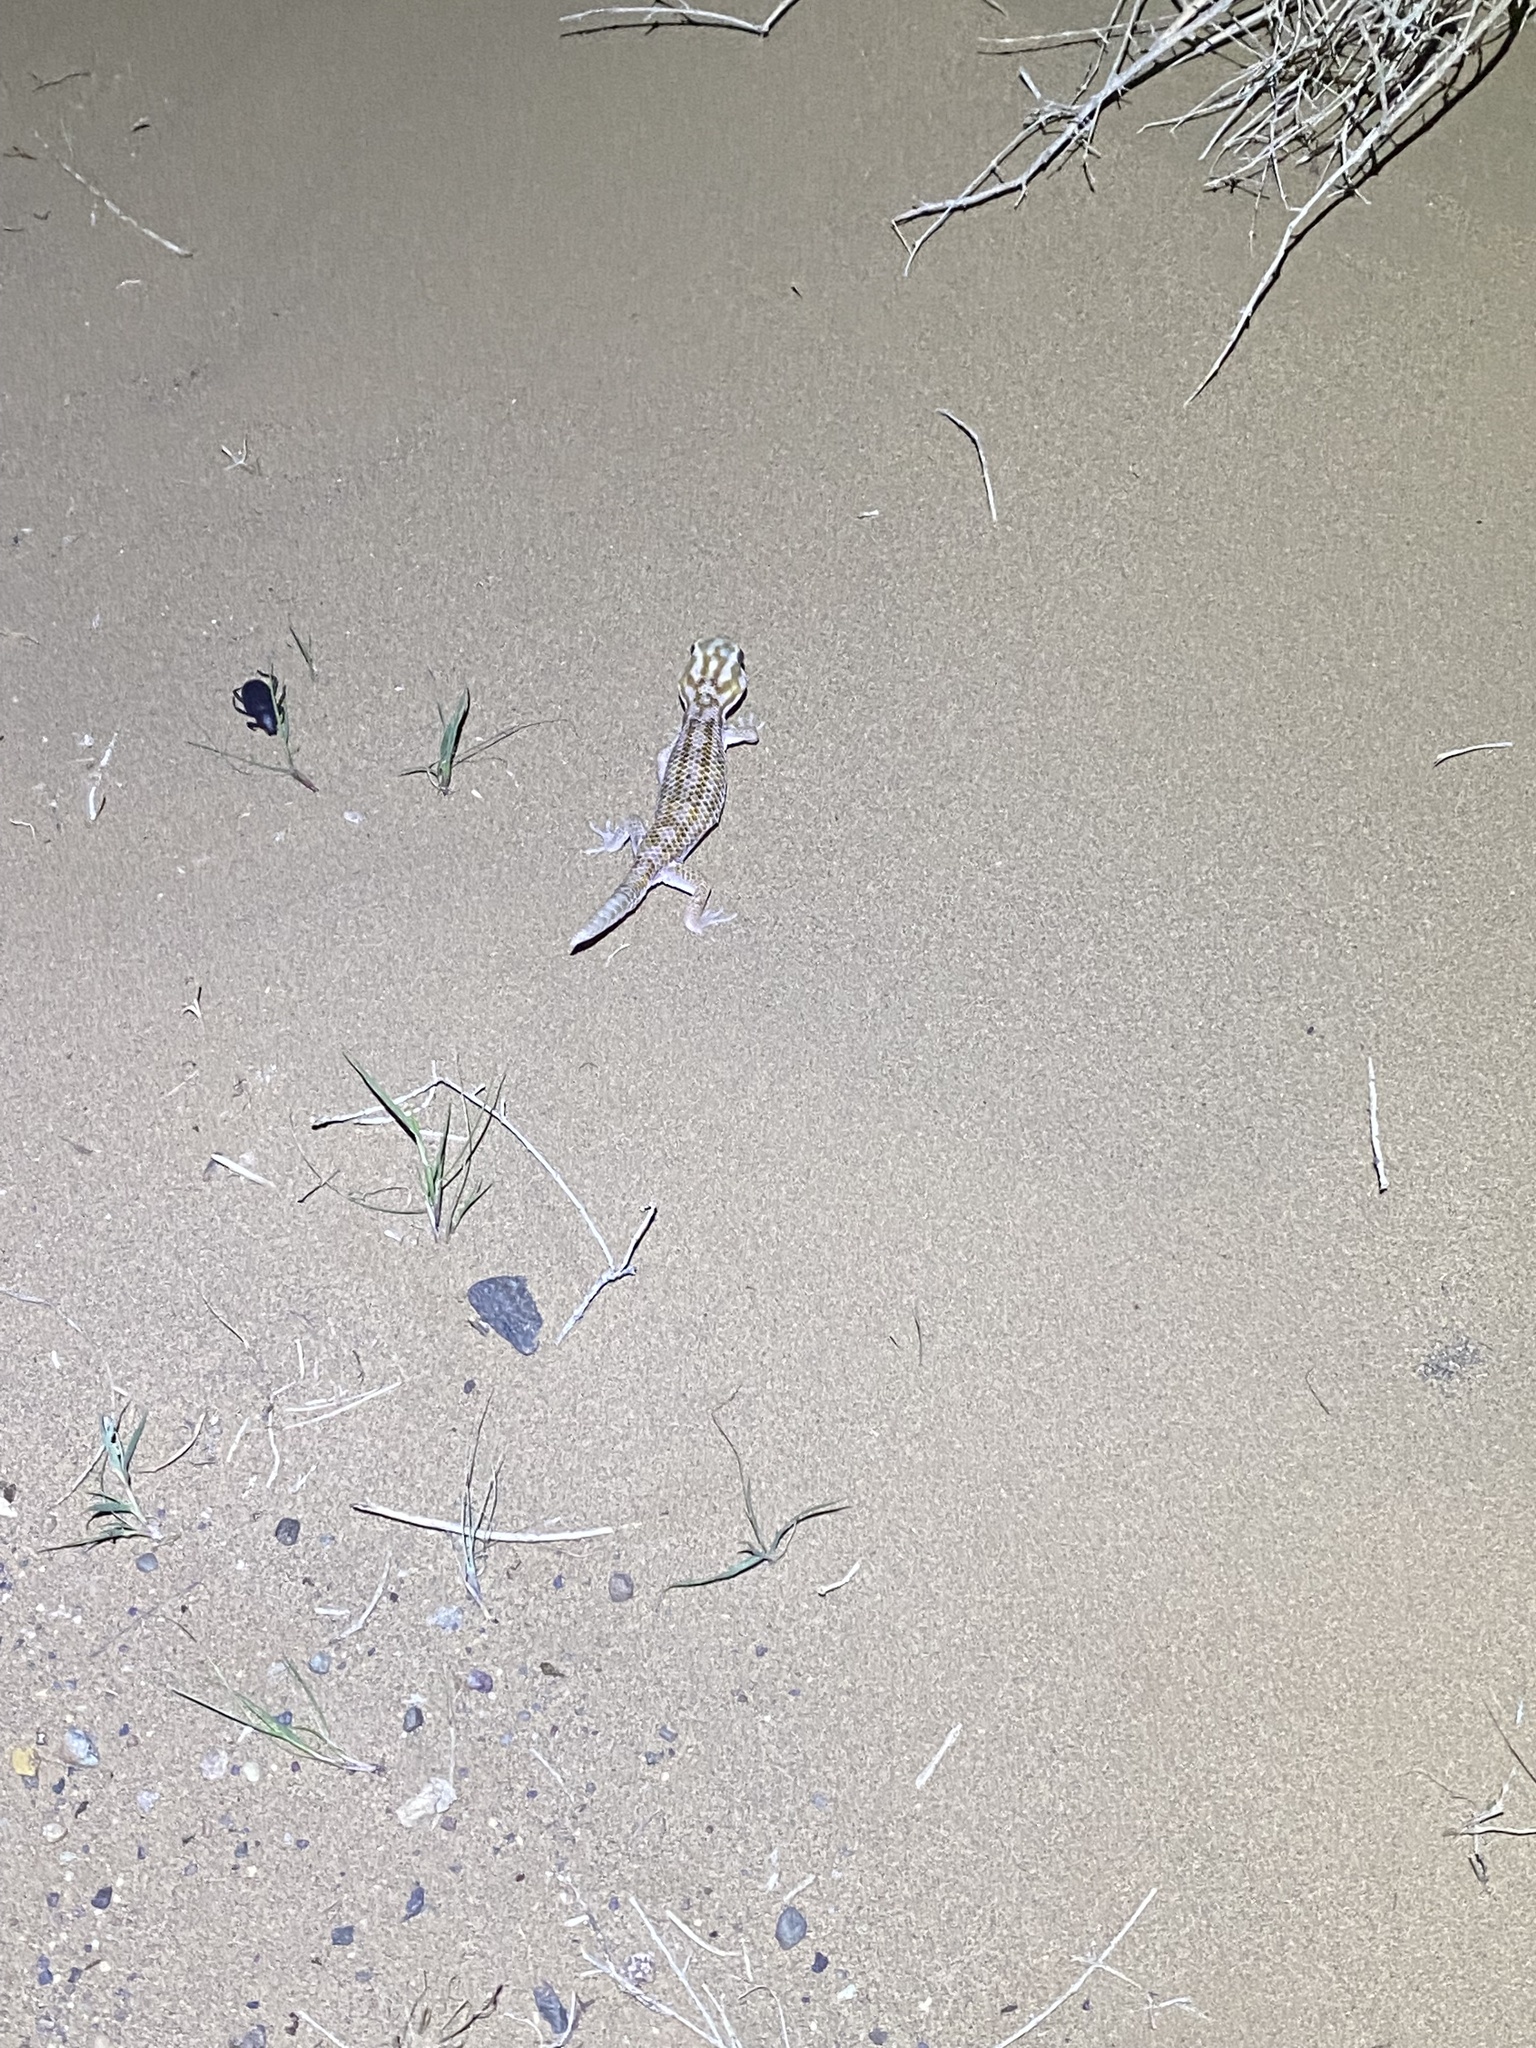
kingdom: Animalia
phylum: Chordata
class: Squamata
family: Sphaerodactylidae
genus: Teratoscincus
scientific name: Teratoscincus keyserlingii
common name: Frog-eyed gecko
